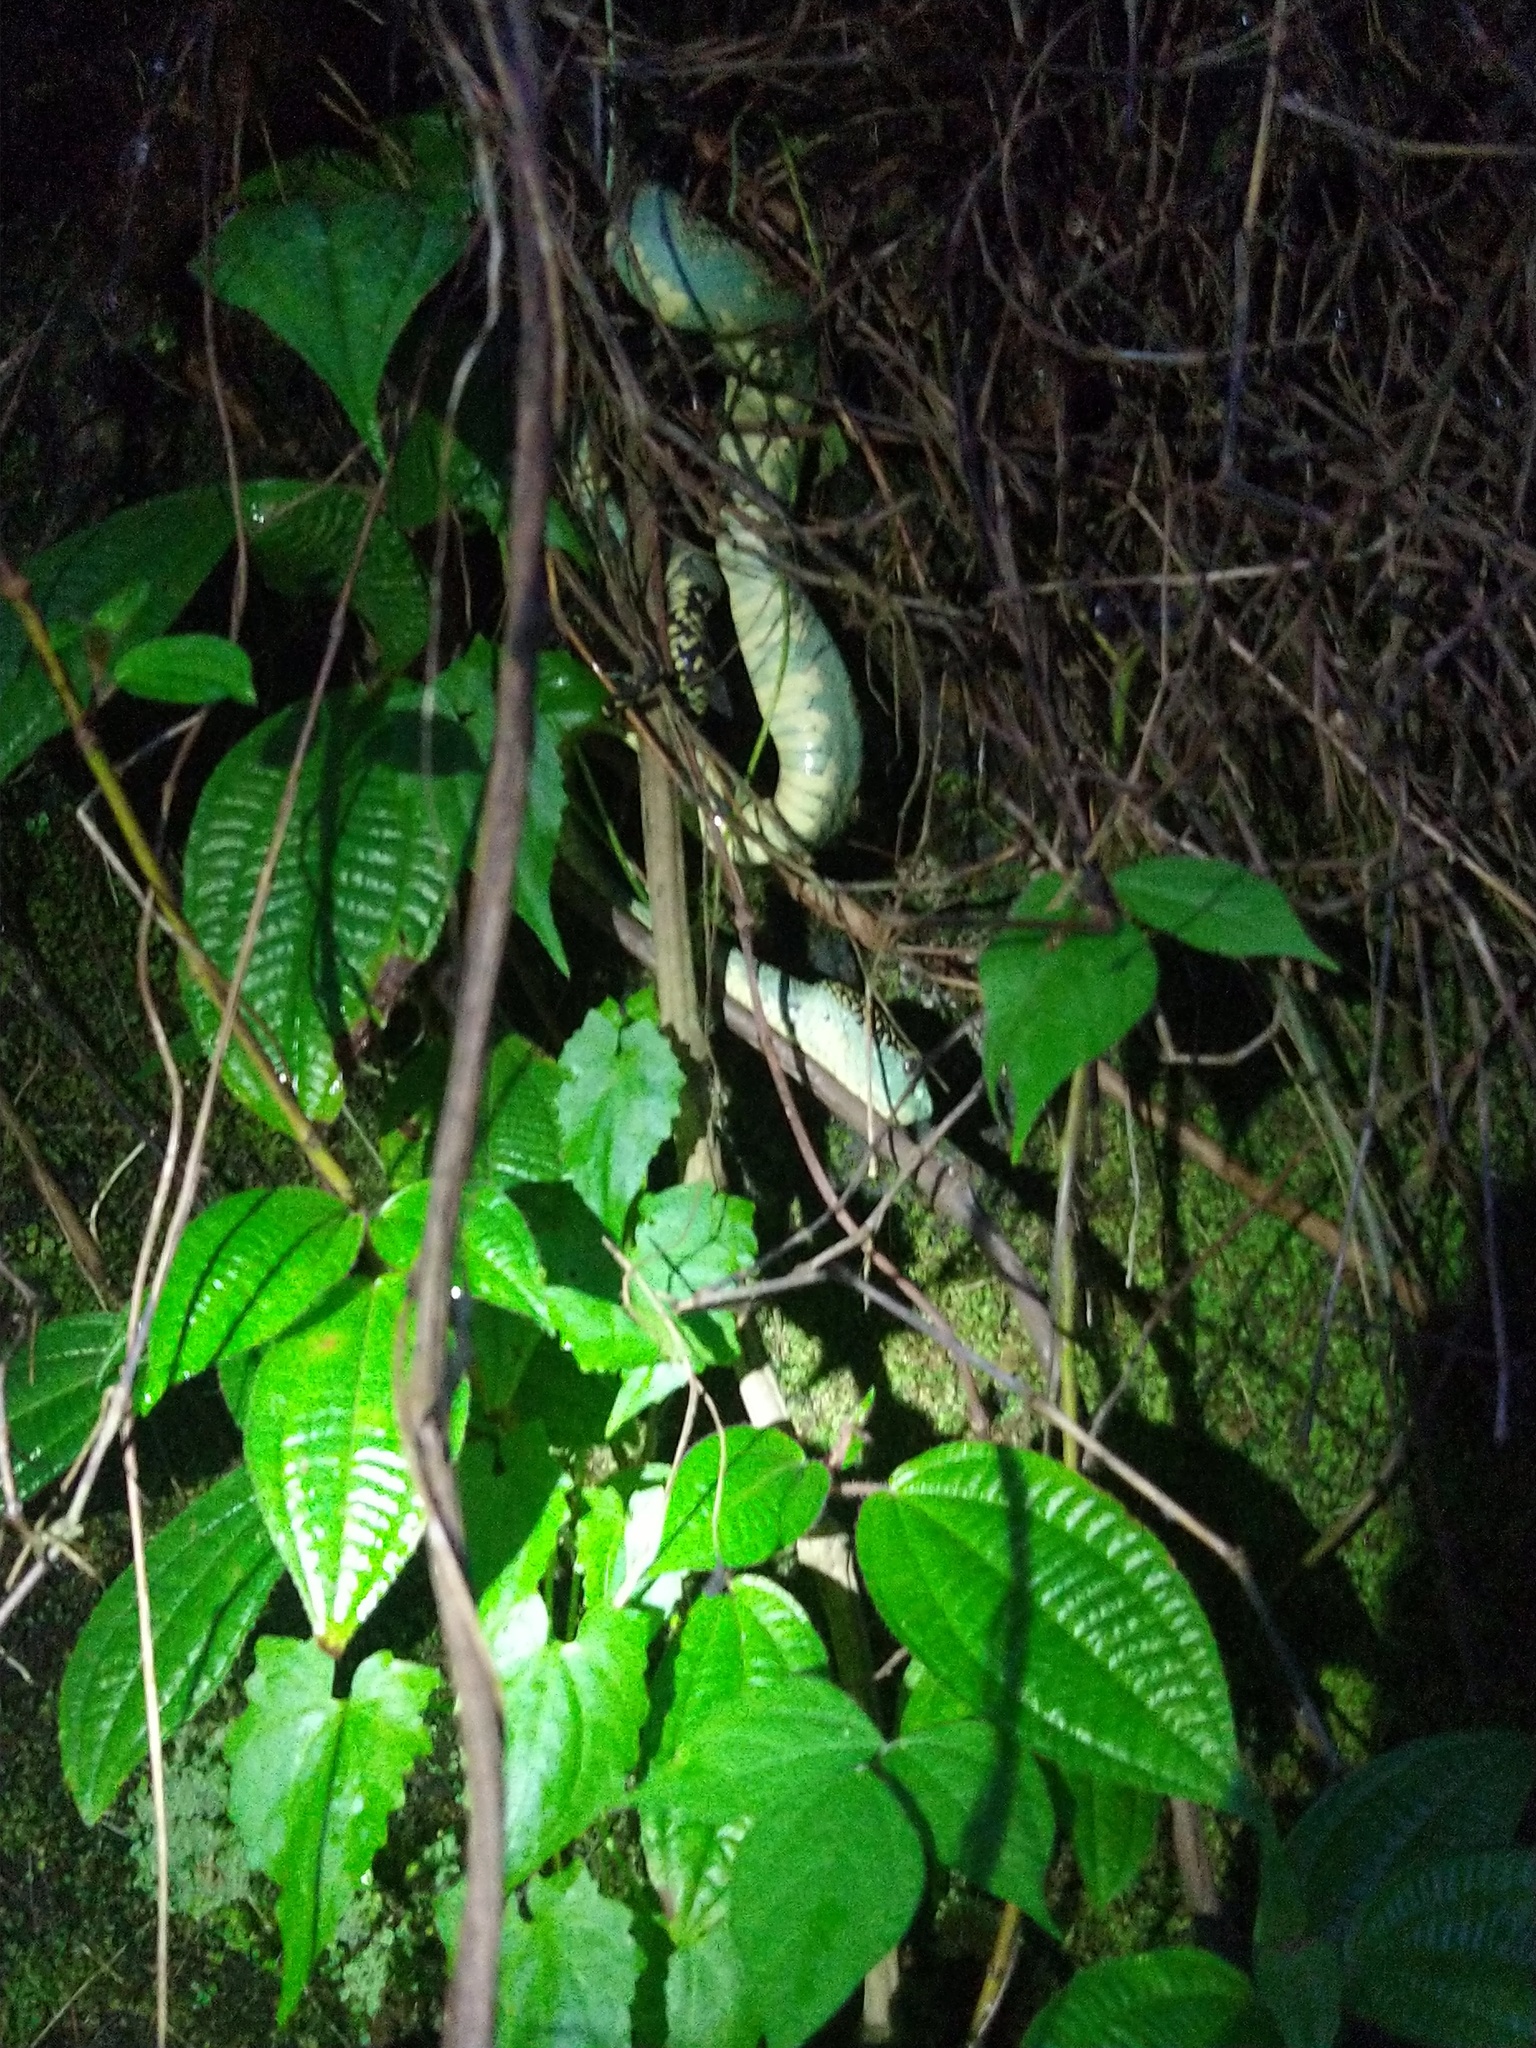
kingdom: Animalia
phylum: Chordata
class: Squamata
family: Viperidae
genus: Craspedocephalus
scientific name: Craspedocephalus anamallensis
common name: Malabarian pit viper
